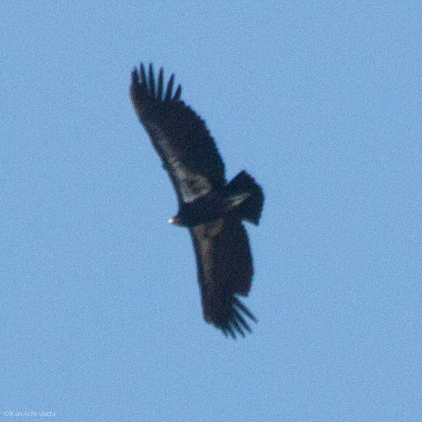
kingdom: Animalia
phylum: Chordata
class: Aves
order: Accipitriformes
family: Cathartidae
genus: Gymnogyps
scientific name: Gymnogyps californianus
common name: California condor
